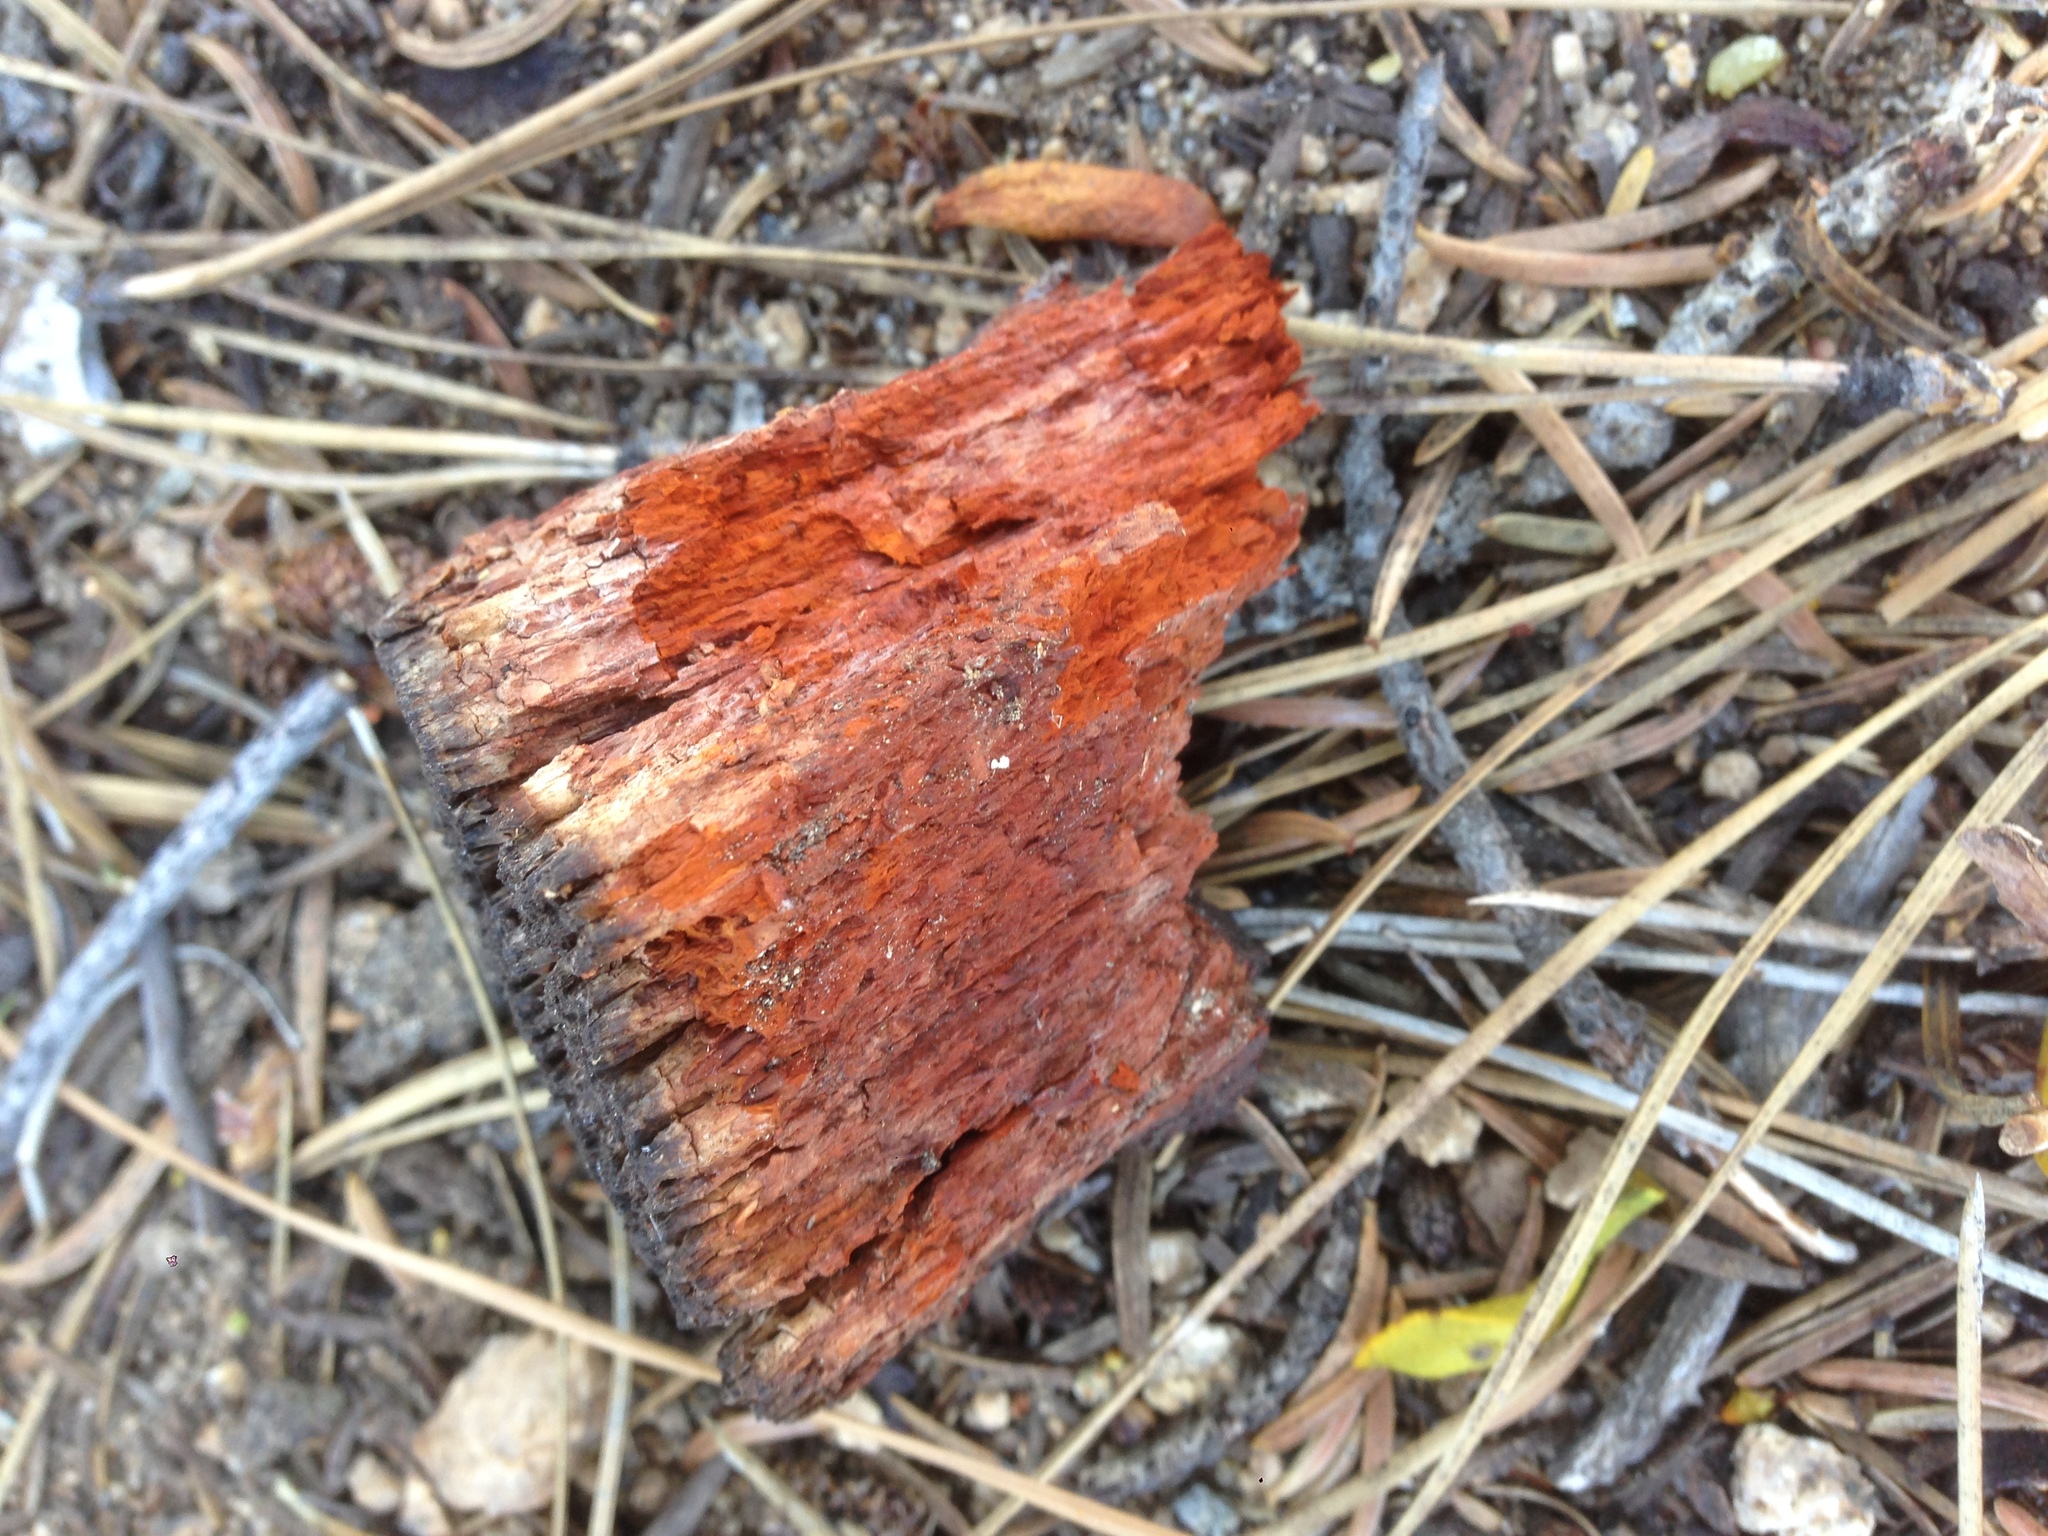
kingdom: Fungi
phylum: Basidiomycota
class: Agaricomycetes
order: Russulales
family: Echinodontiaceae
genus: Echinodontium
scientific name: Echinodontium tinctorium
